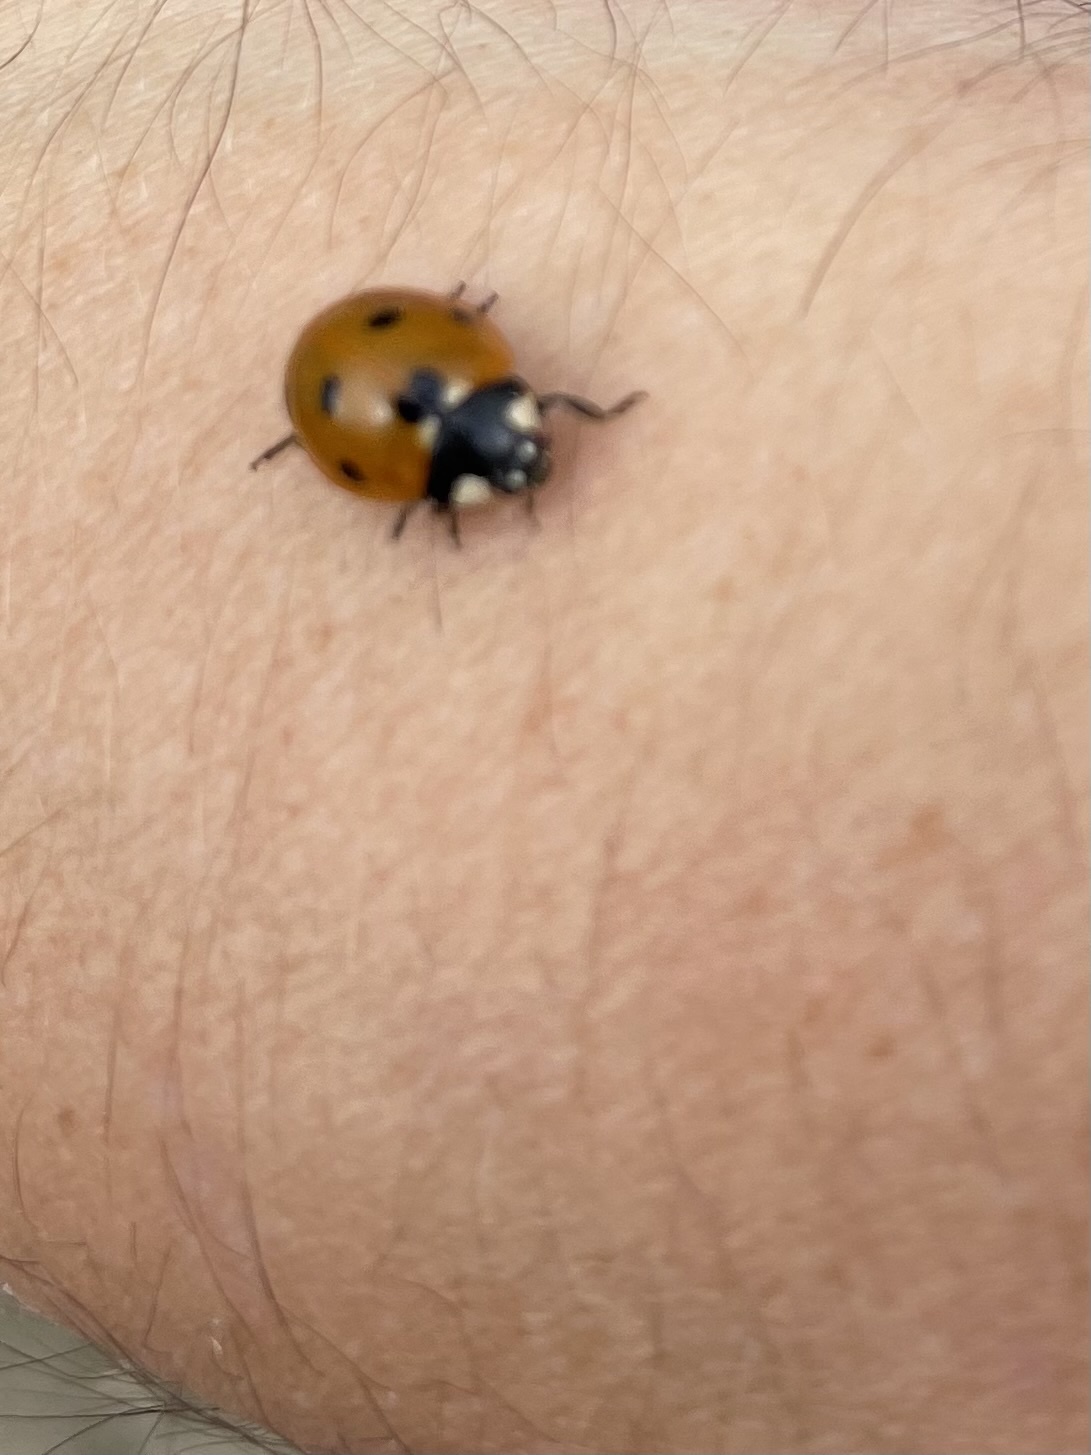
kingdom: Animalia
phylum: Arthropoda
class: Insecta
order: Coleoptera
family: Coccinellidae
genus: Coccinella
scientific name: Coccinella septempunctata
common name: Sevenspotted lady beetle
